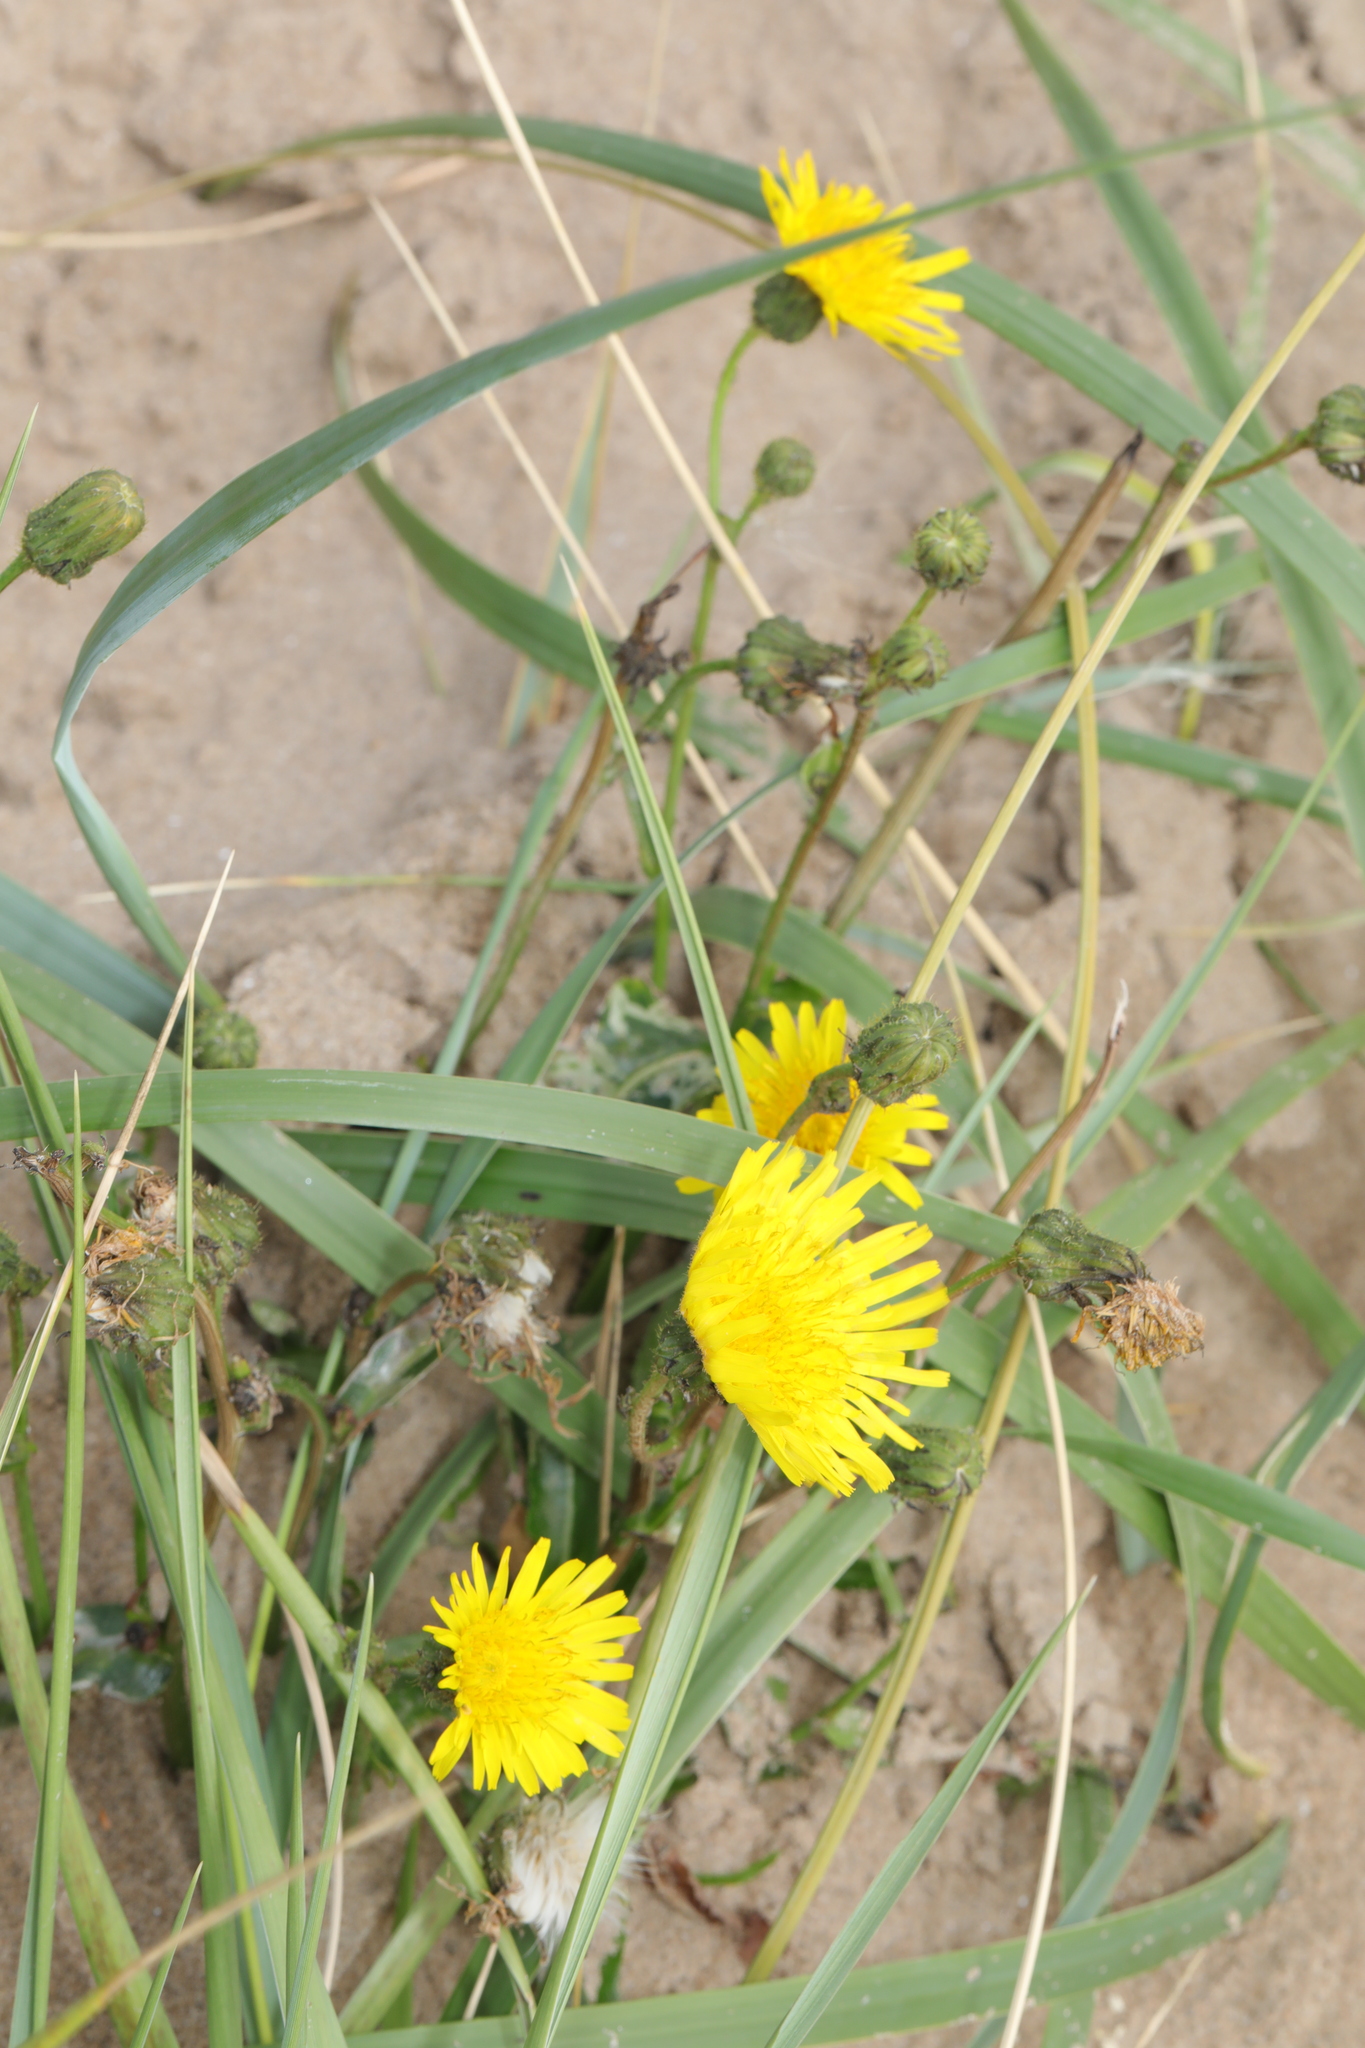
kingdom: Plantae
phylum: Tracheophyta
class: Magnoliopsida
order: Asterales
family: Asteraceae
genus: Sonchus
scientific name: Sonchus arvensis
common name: Perennial sow-thistle
